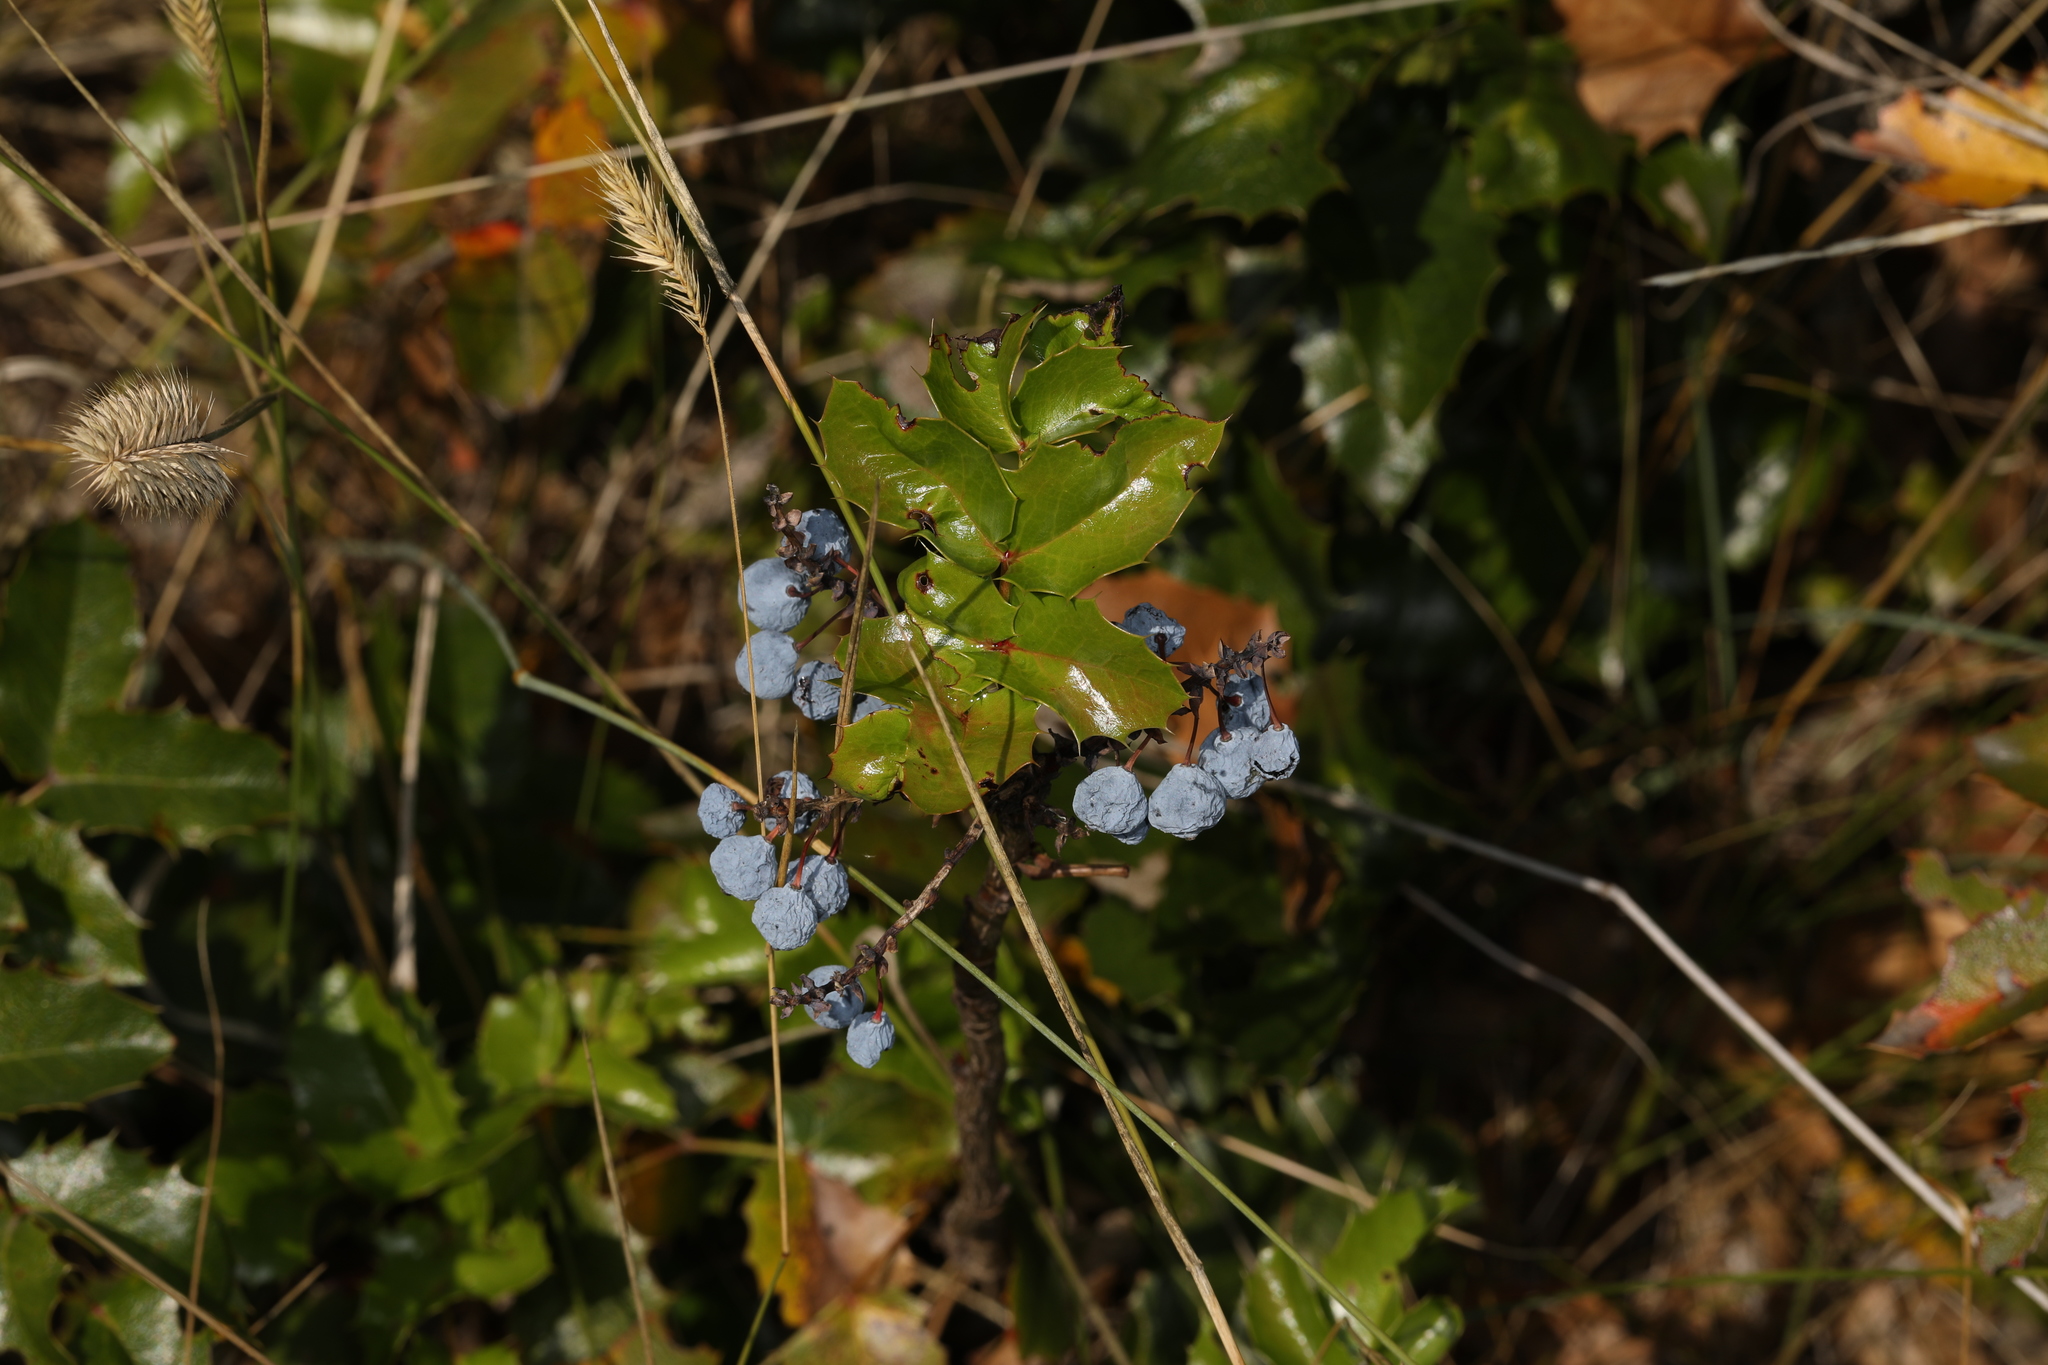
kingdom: Plantae
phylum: Tracheophyta
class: Magnoliopsida
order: Ranunculales
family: Berberidaceae
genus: Mahonia
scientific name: Mahonia aquifolium
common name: Oregon-grape
